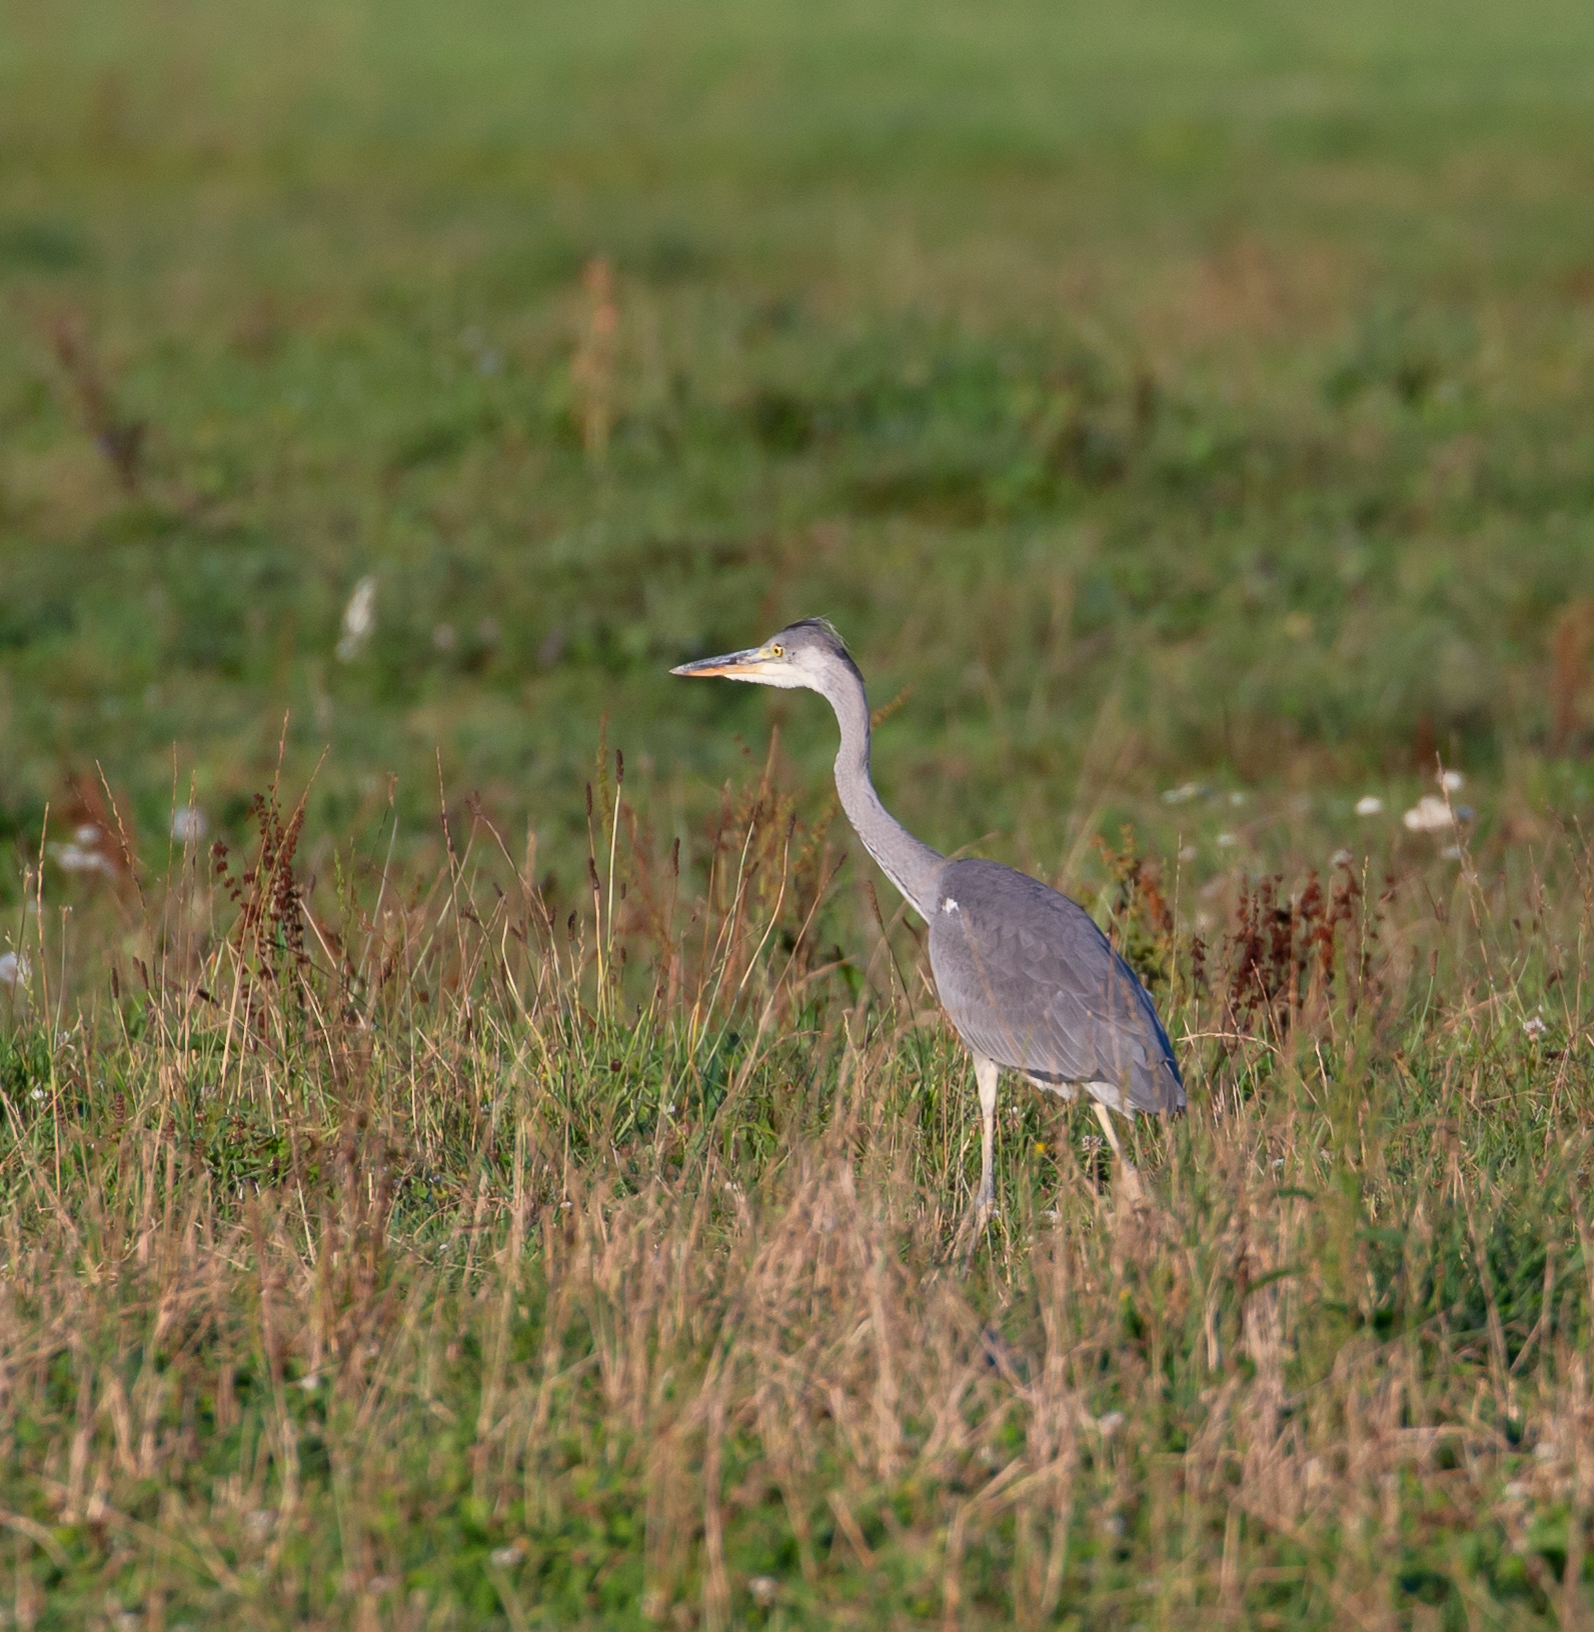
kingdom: Animalia
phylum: Chordata
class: Aves
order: Pelecaniformes
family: Ardeidae
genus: Ardea
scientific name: Ardea cinerea
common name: Grey heron
